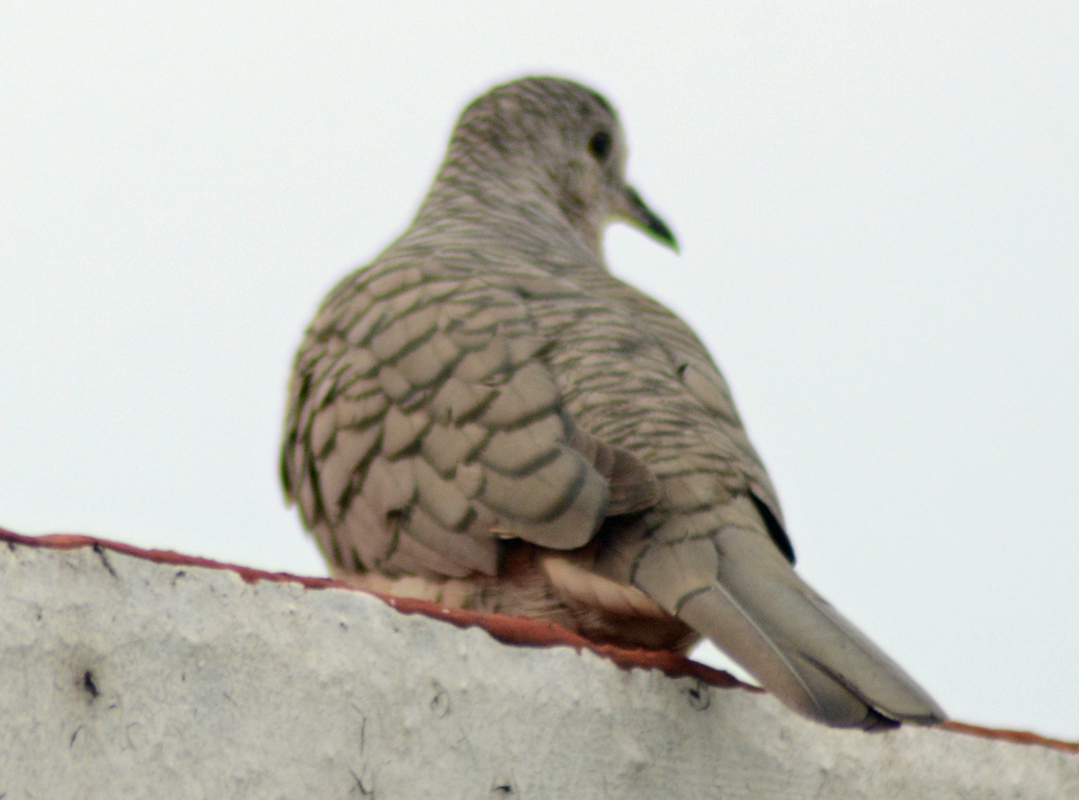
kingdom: Animalia
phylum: Chordata
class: Aves
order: Columbiformes
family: Columbidae
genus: Columbina
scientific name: Columbina inca
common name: Inca dove
